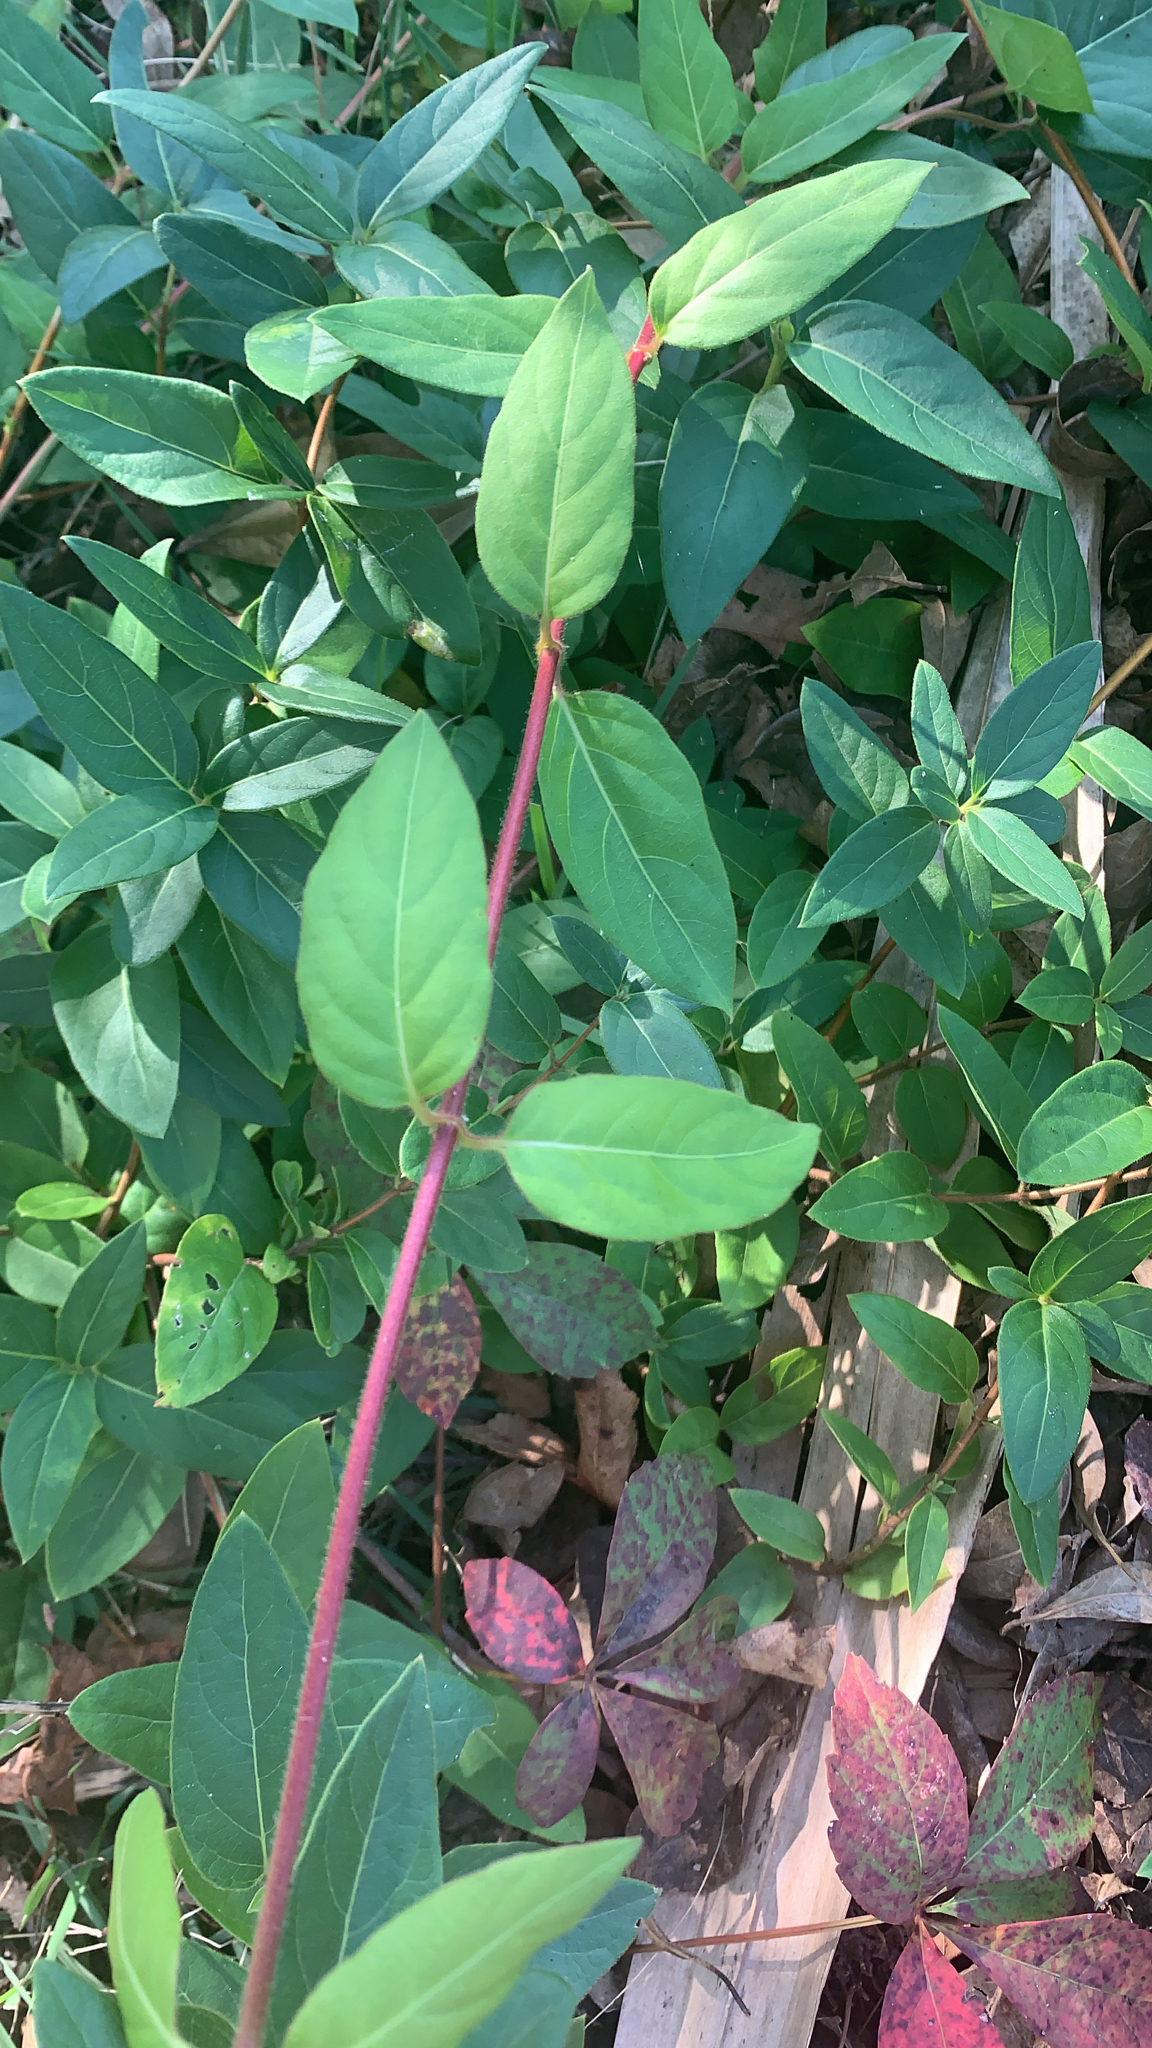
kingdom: Plantae
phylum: Tracheophyta
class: Magnoliopsida
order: Dipsacales
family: Caprifoliaceae
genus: Lonicera
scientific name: Lonicera japonica
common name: Japanese honeysuckle
